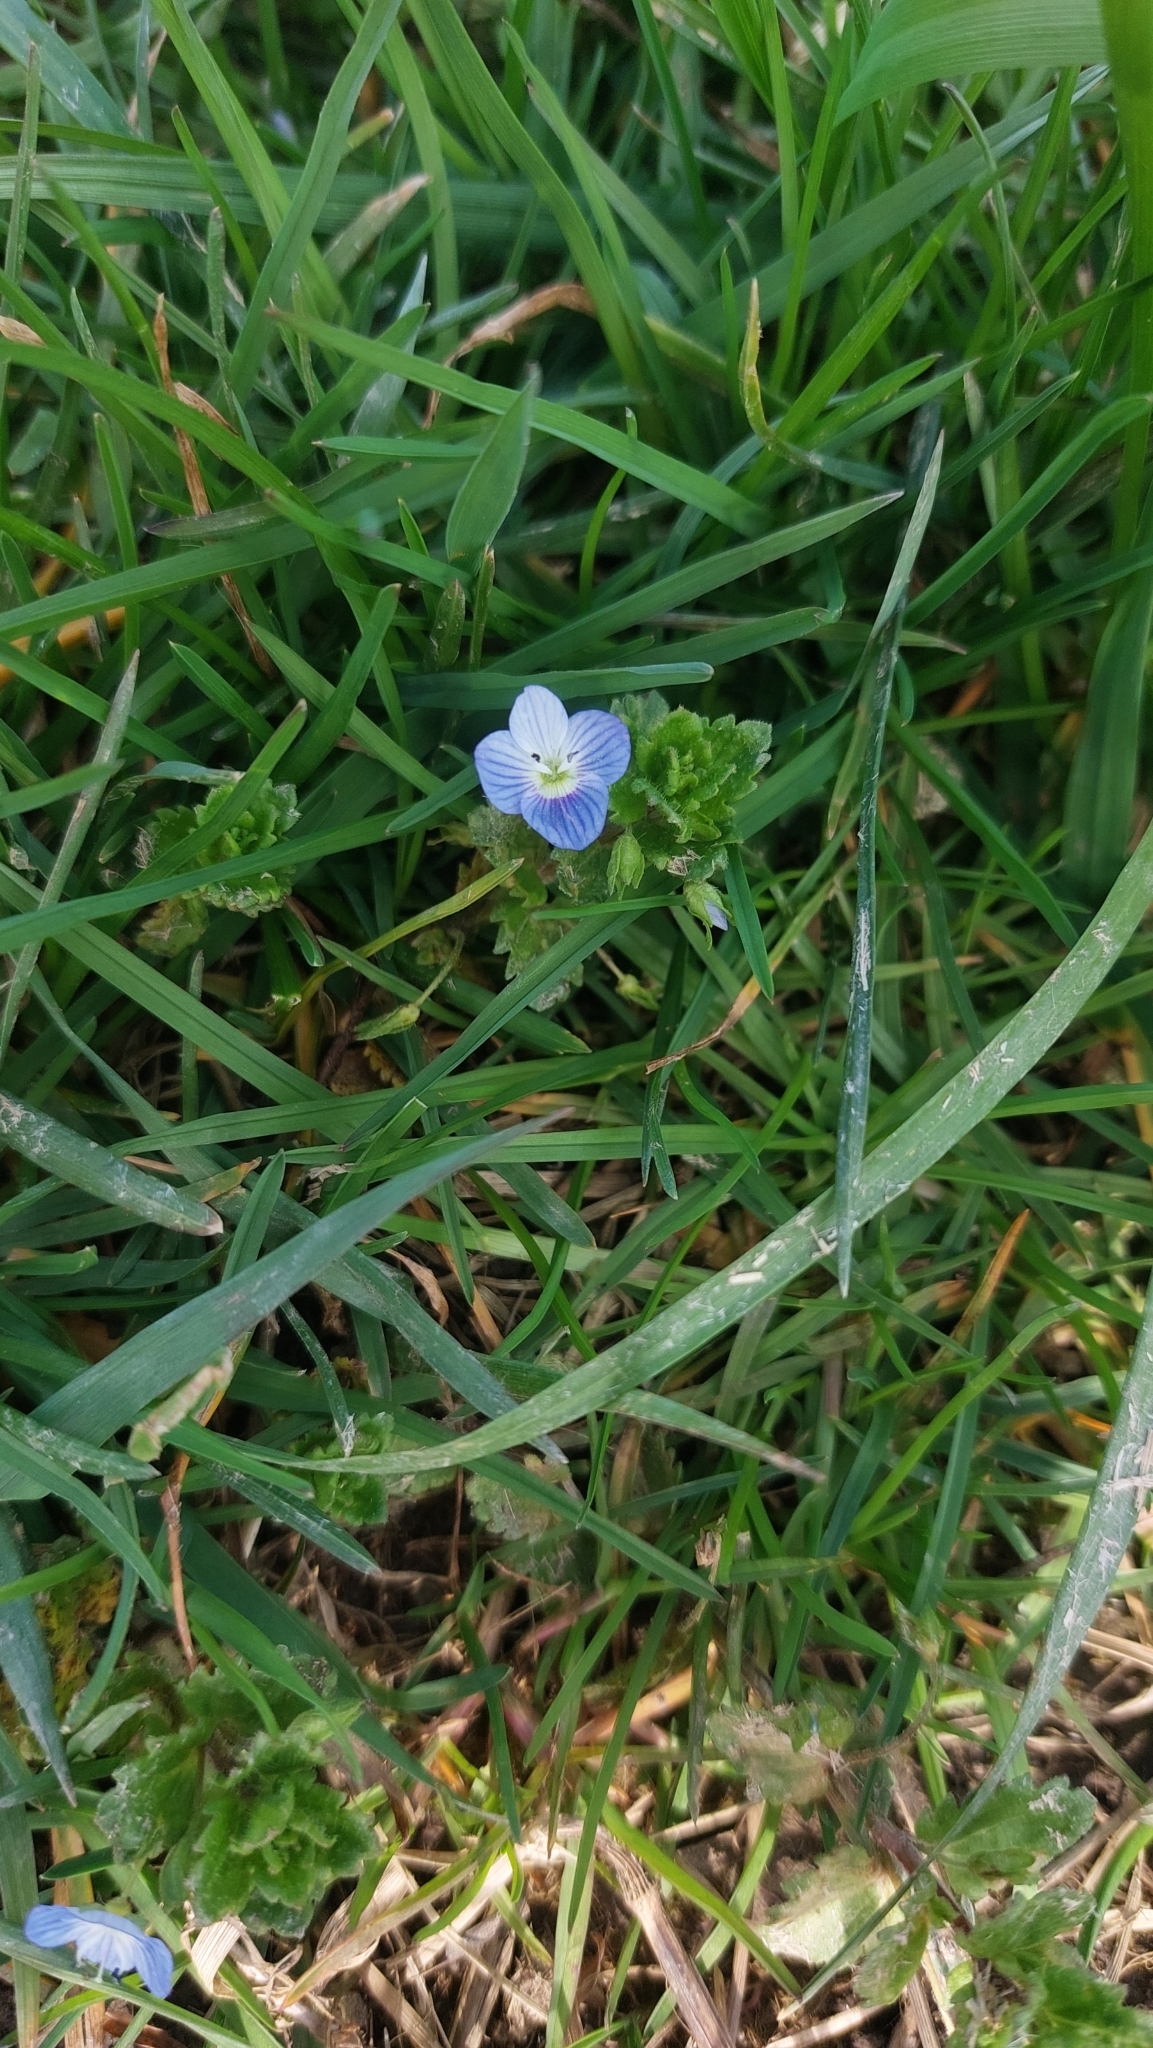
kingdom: Plantae
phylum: Tracheophyta
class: Magnoliopsida
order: Lamiales
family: Plantaginaceae
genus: Veronica
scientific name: Veronica persica
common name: Common field-speedwell
